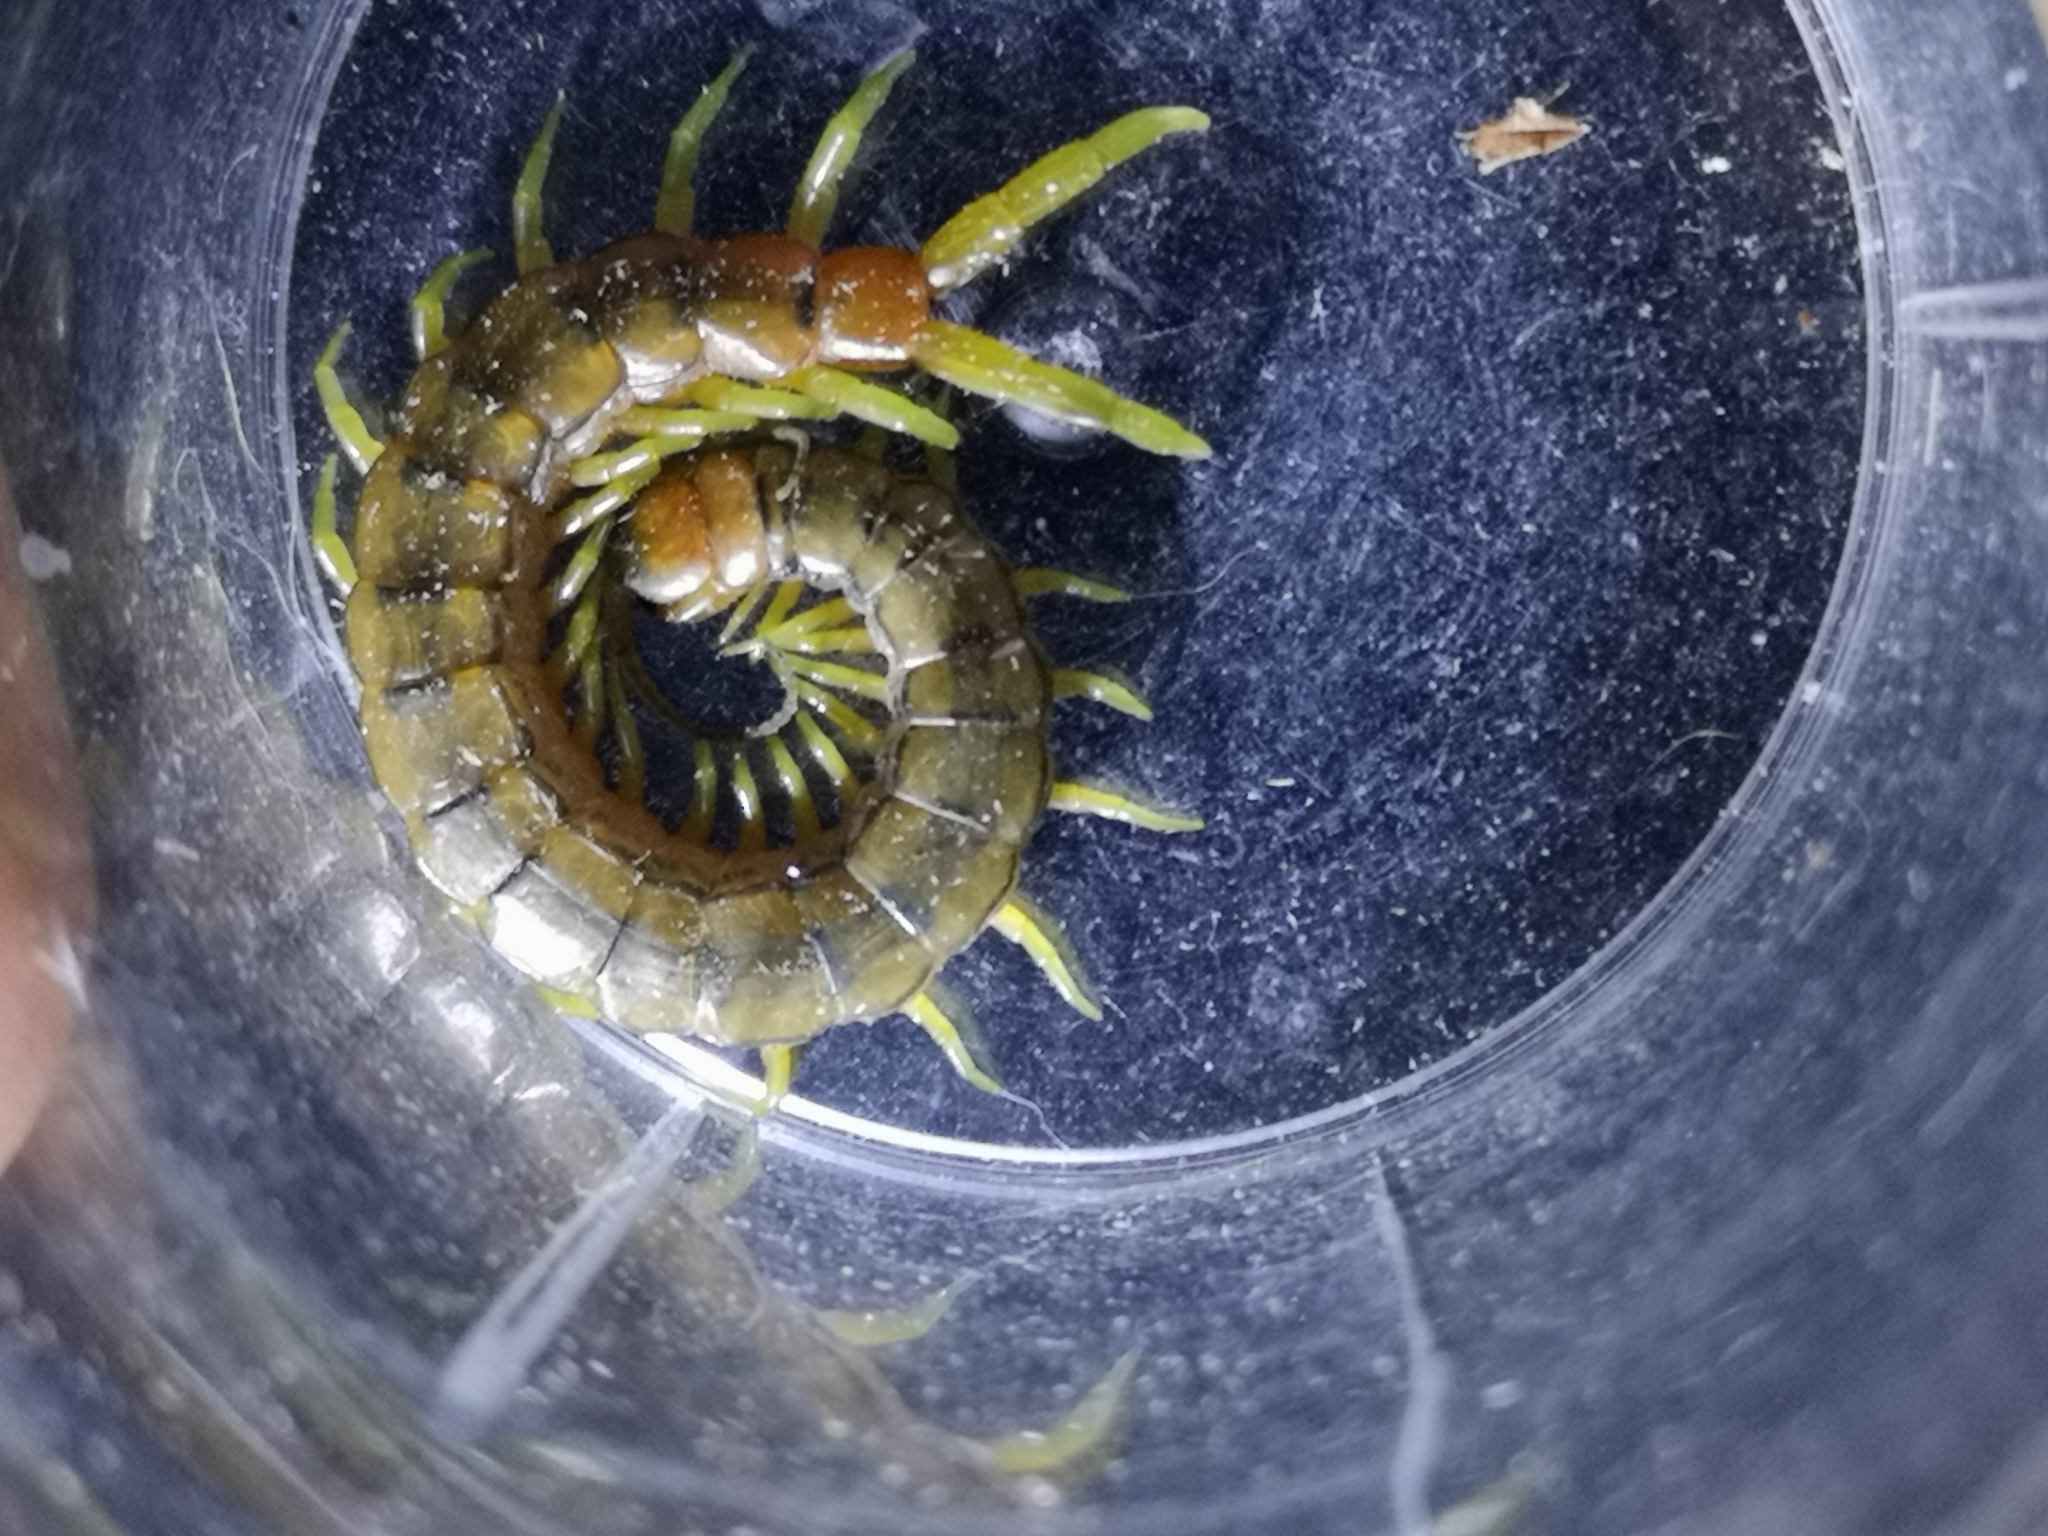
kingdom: Animalia
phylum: Arthropoda
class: Chilopoda
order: Scolopendromorpha
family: Scolopendridae
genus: Scolopendra
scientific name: Scolopendra cingulata
